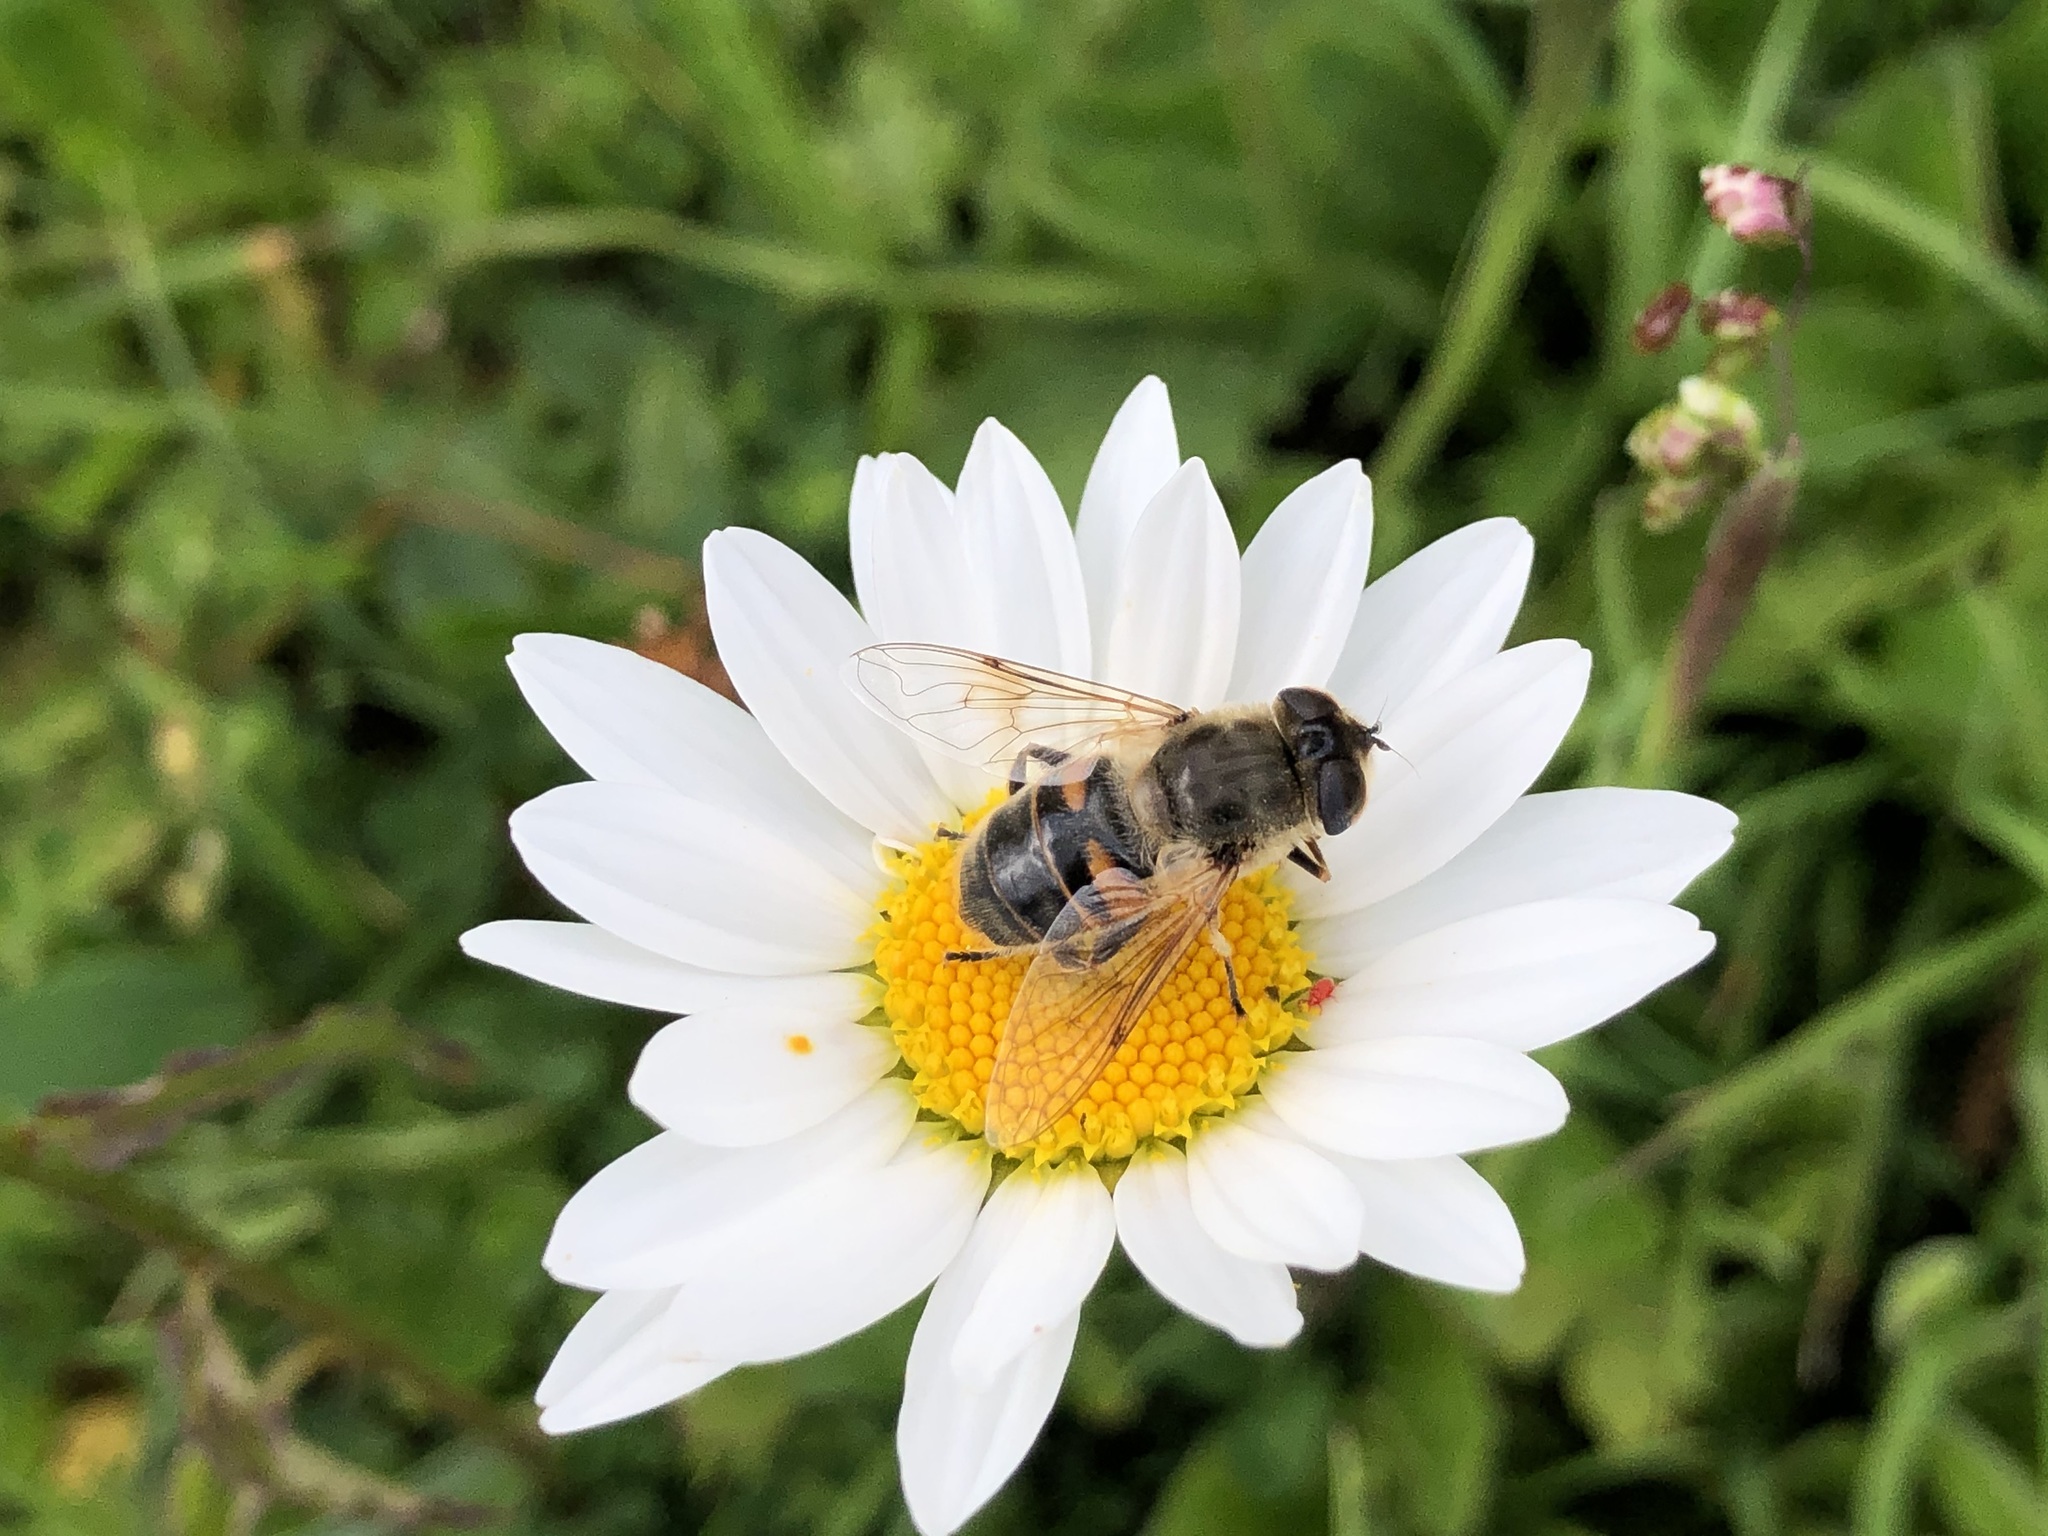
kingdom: Animalia
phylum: Arthropoda
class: Insecta
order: Diptera
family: Syrphidae
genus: Eristalis
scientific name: Eristalis tenax
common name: Drone fly
